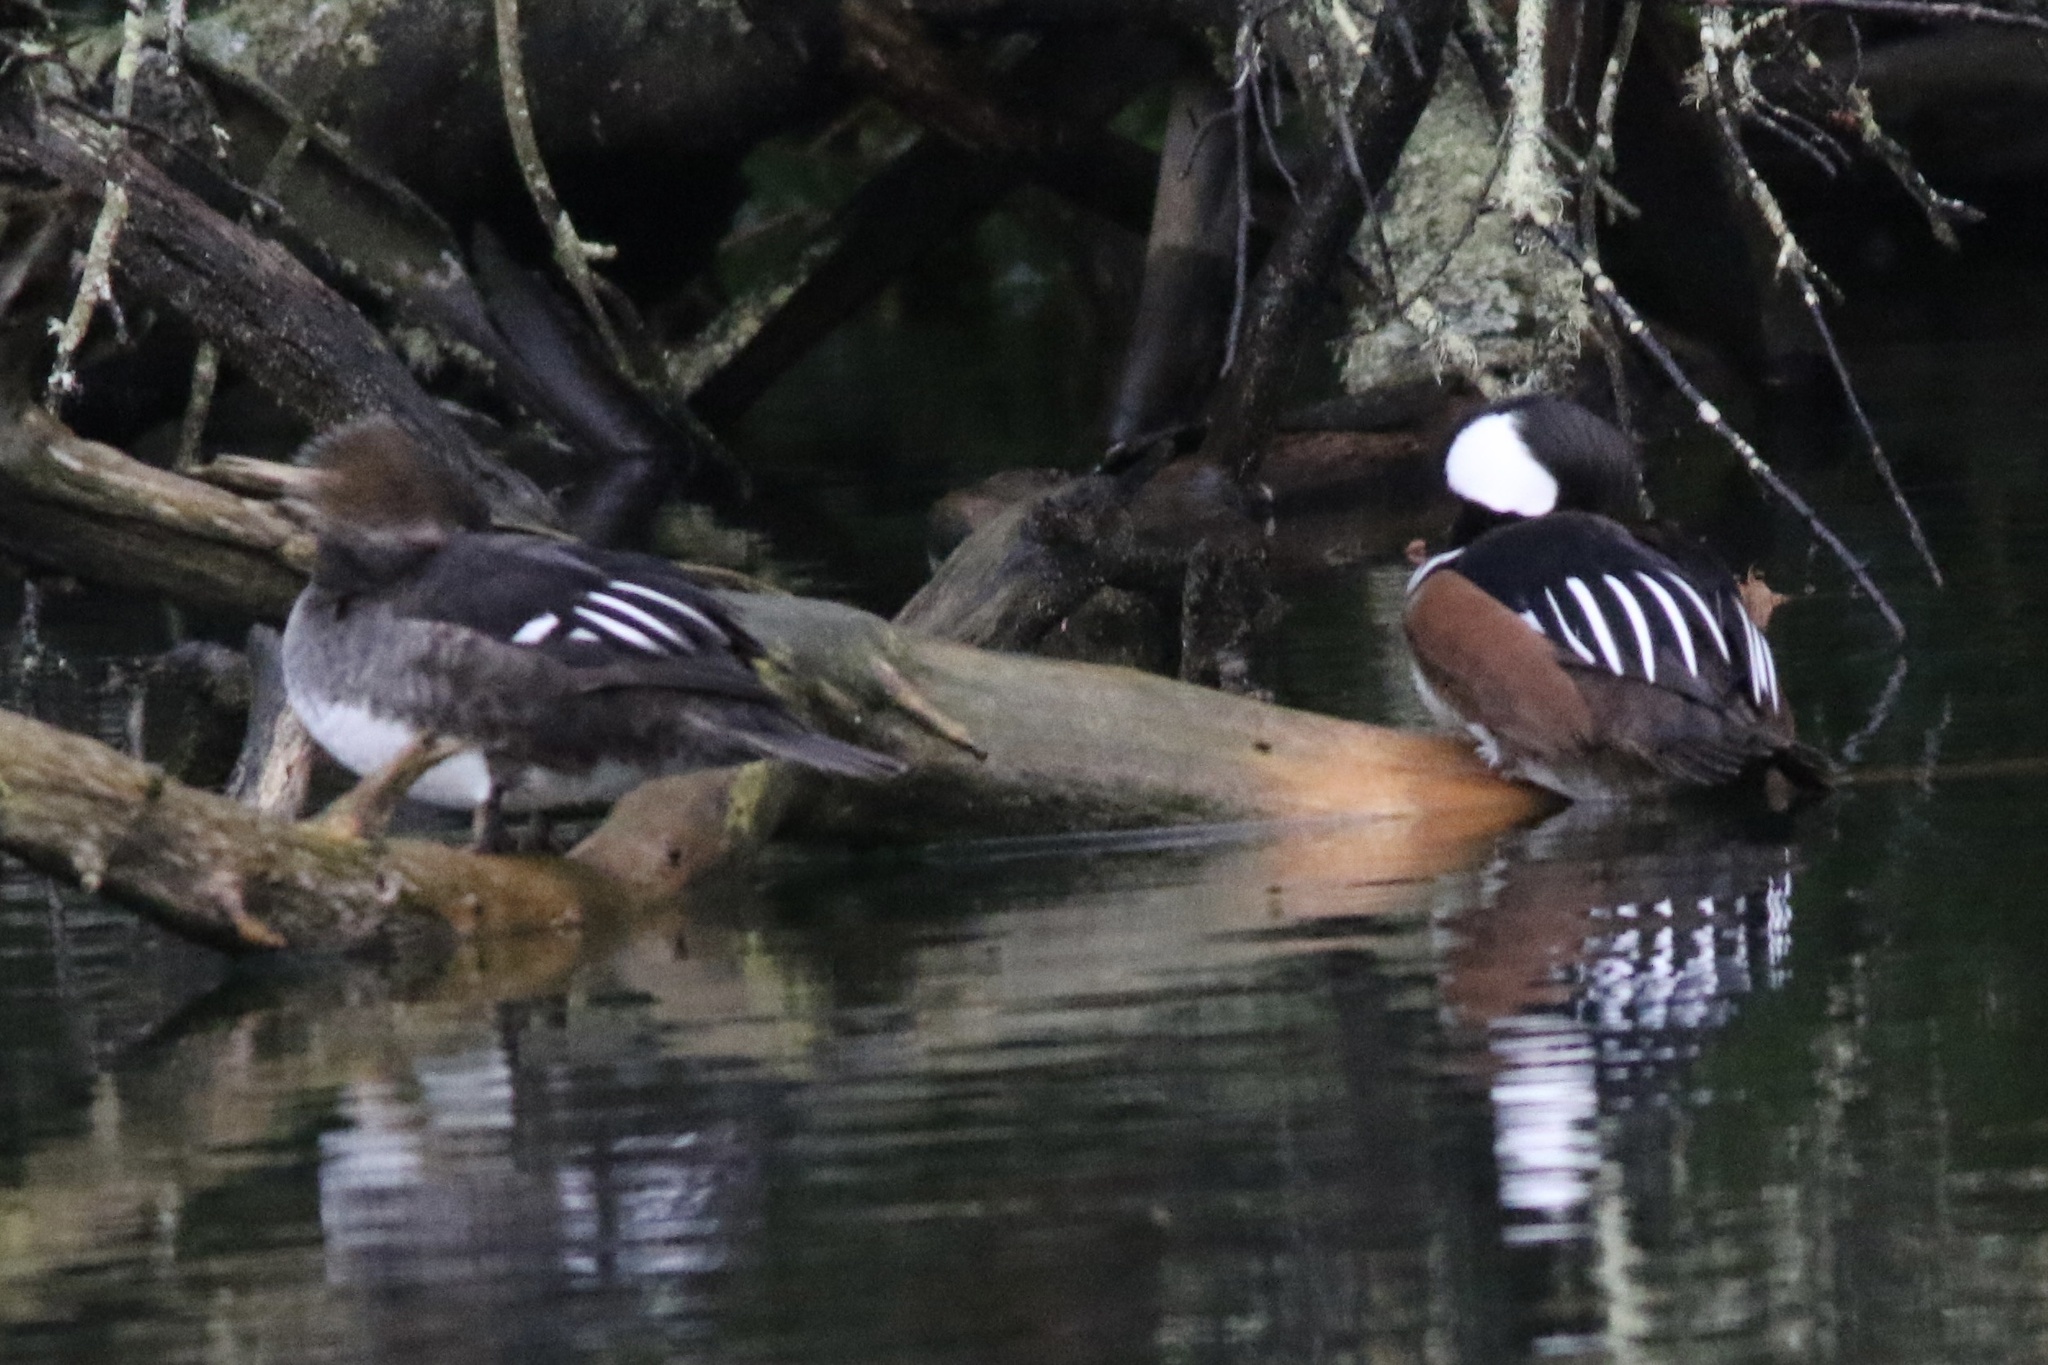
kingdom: Animalia
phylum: Chordata
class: Aves
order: Anseriformes
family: Anatidae
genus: Lophodytes
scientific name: Lophodytes cucullatus
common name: Hooded merganser
